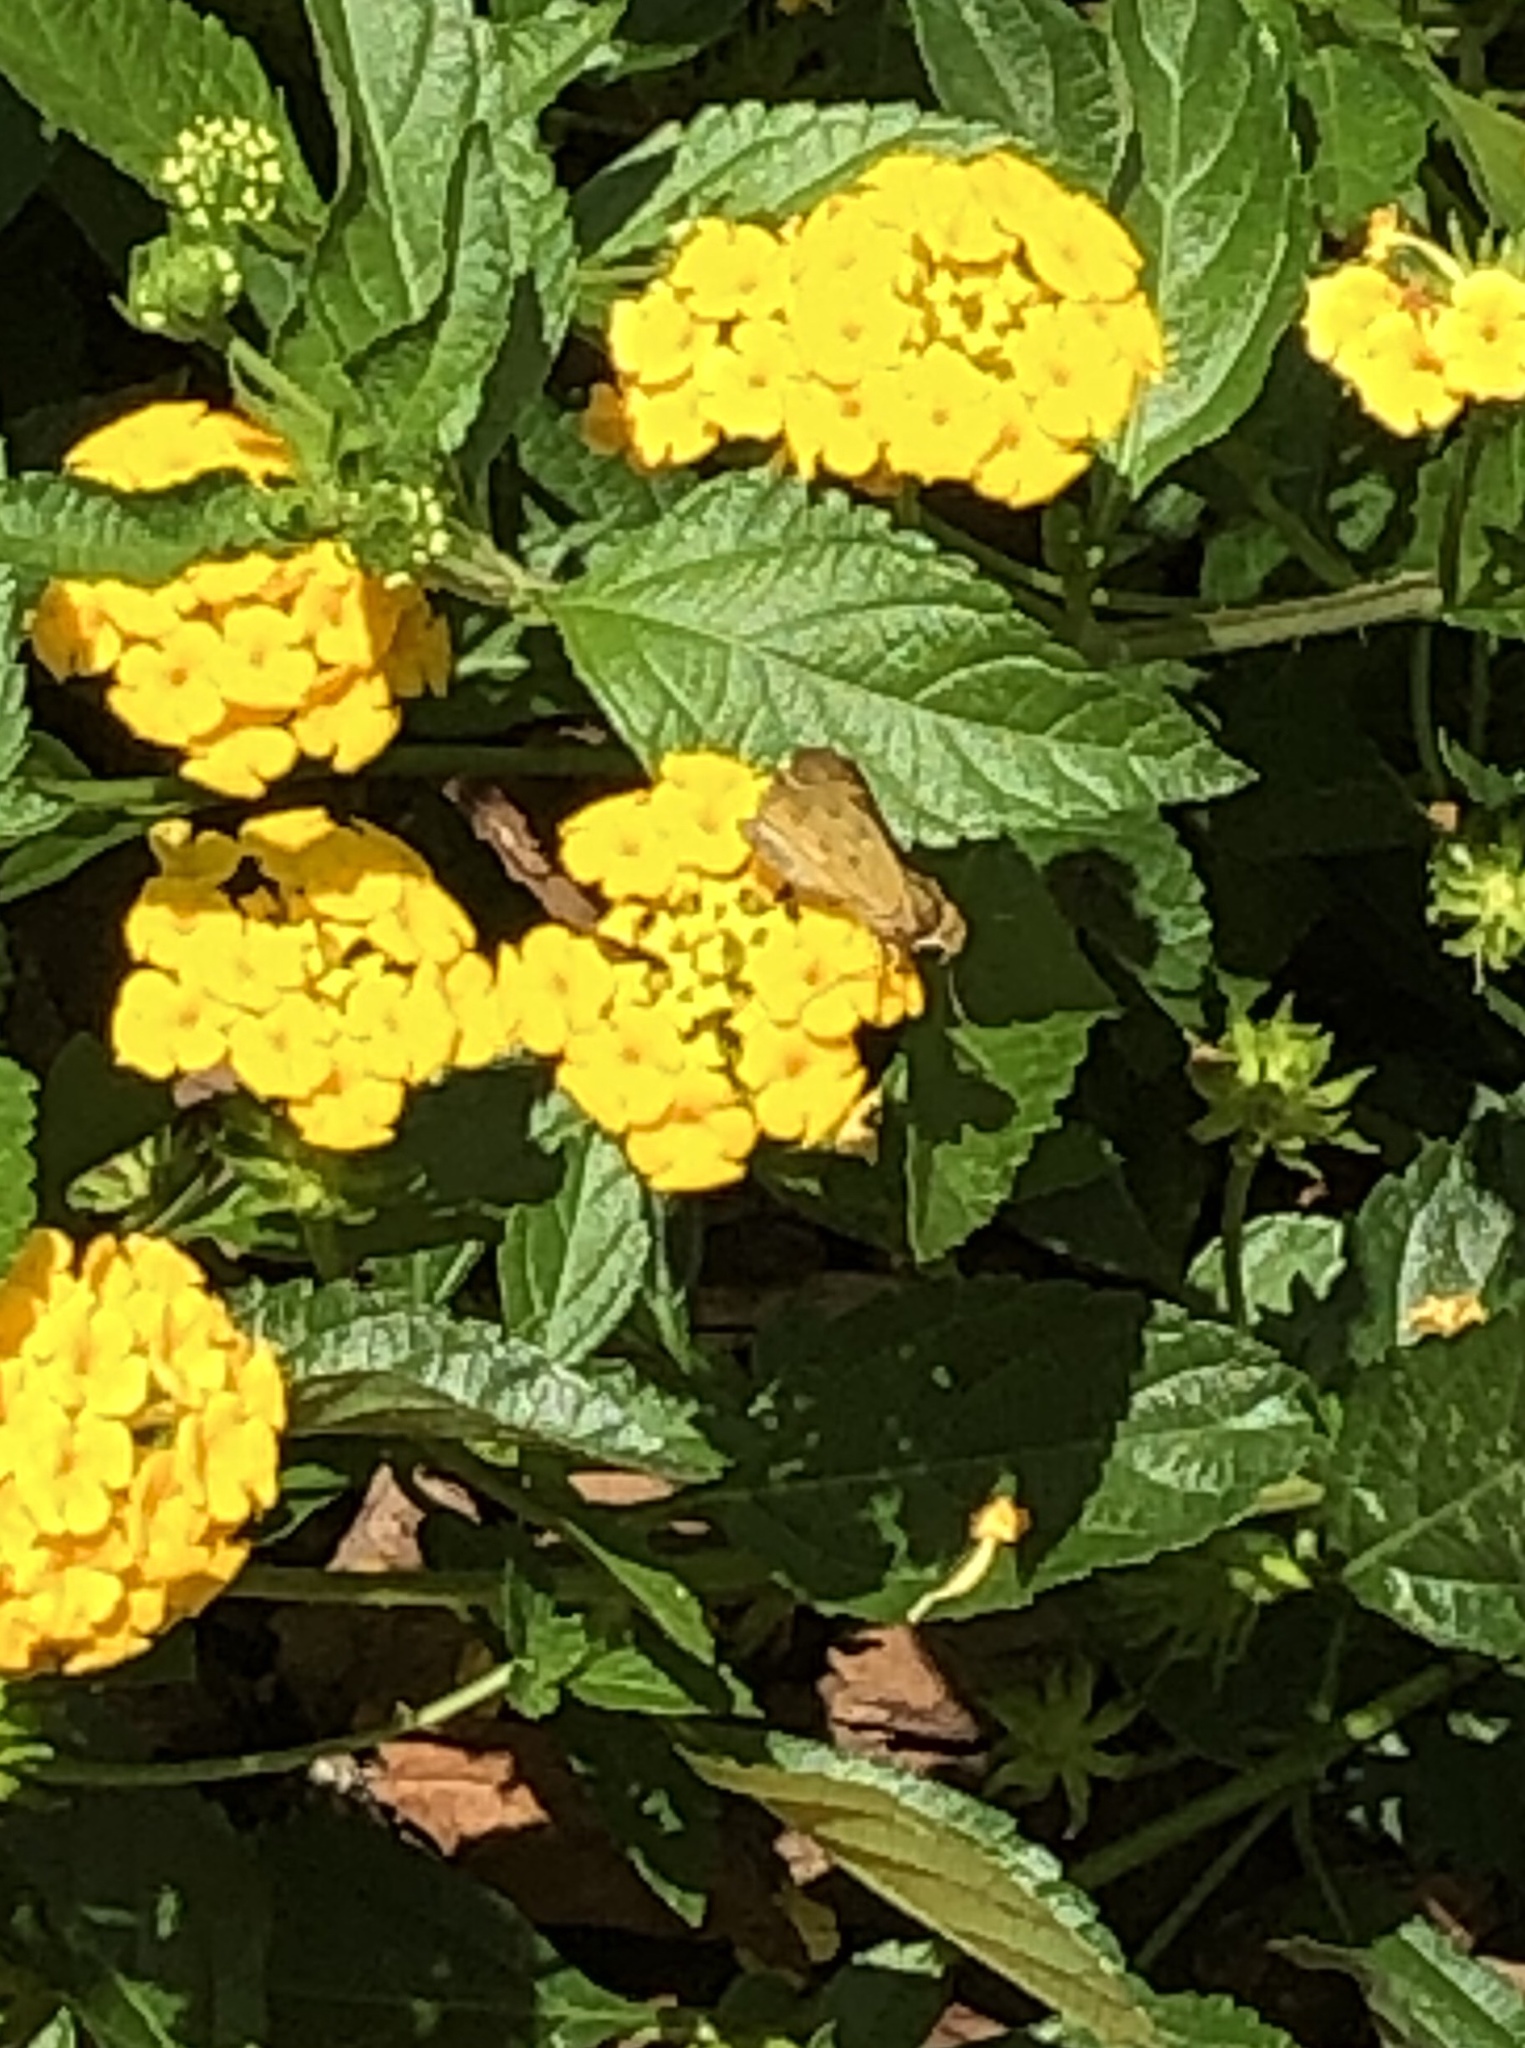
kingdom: Animalia
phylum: Arthropoda
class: Insecta
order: Lepidoptera
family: Hesperiidae
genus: Hylephila
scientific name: Hylephila phyleus
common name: Fiery skipper
